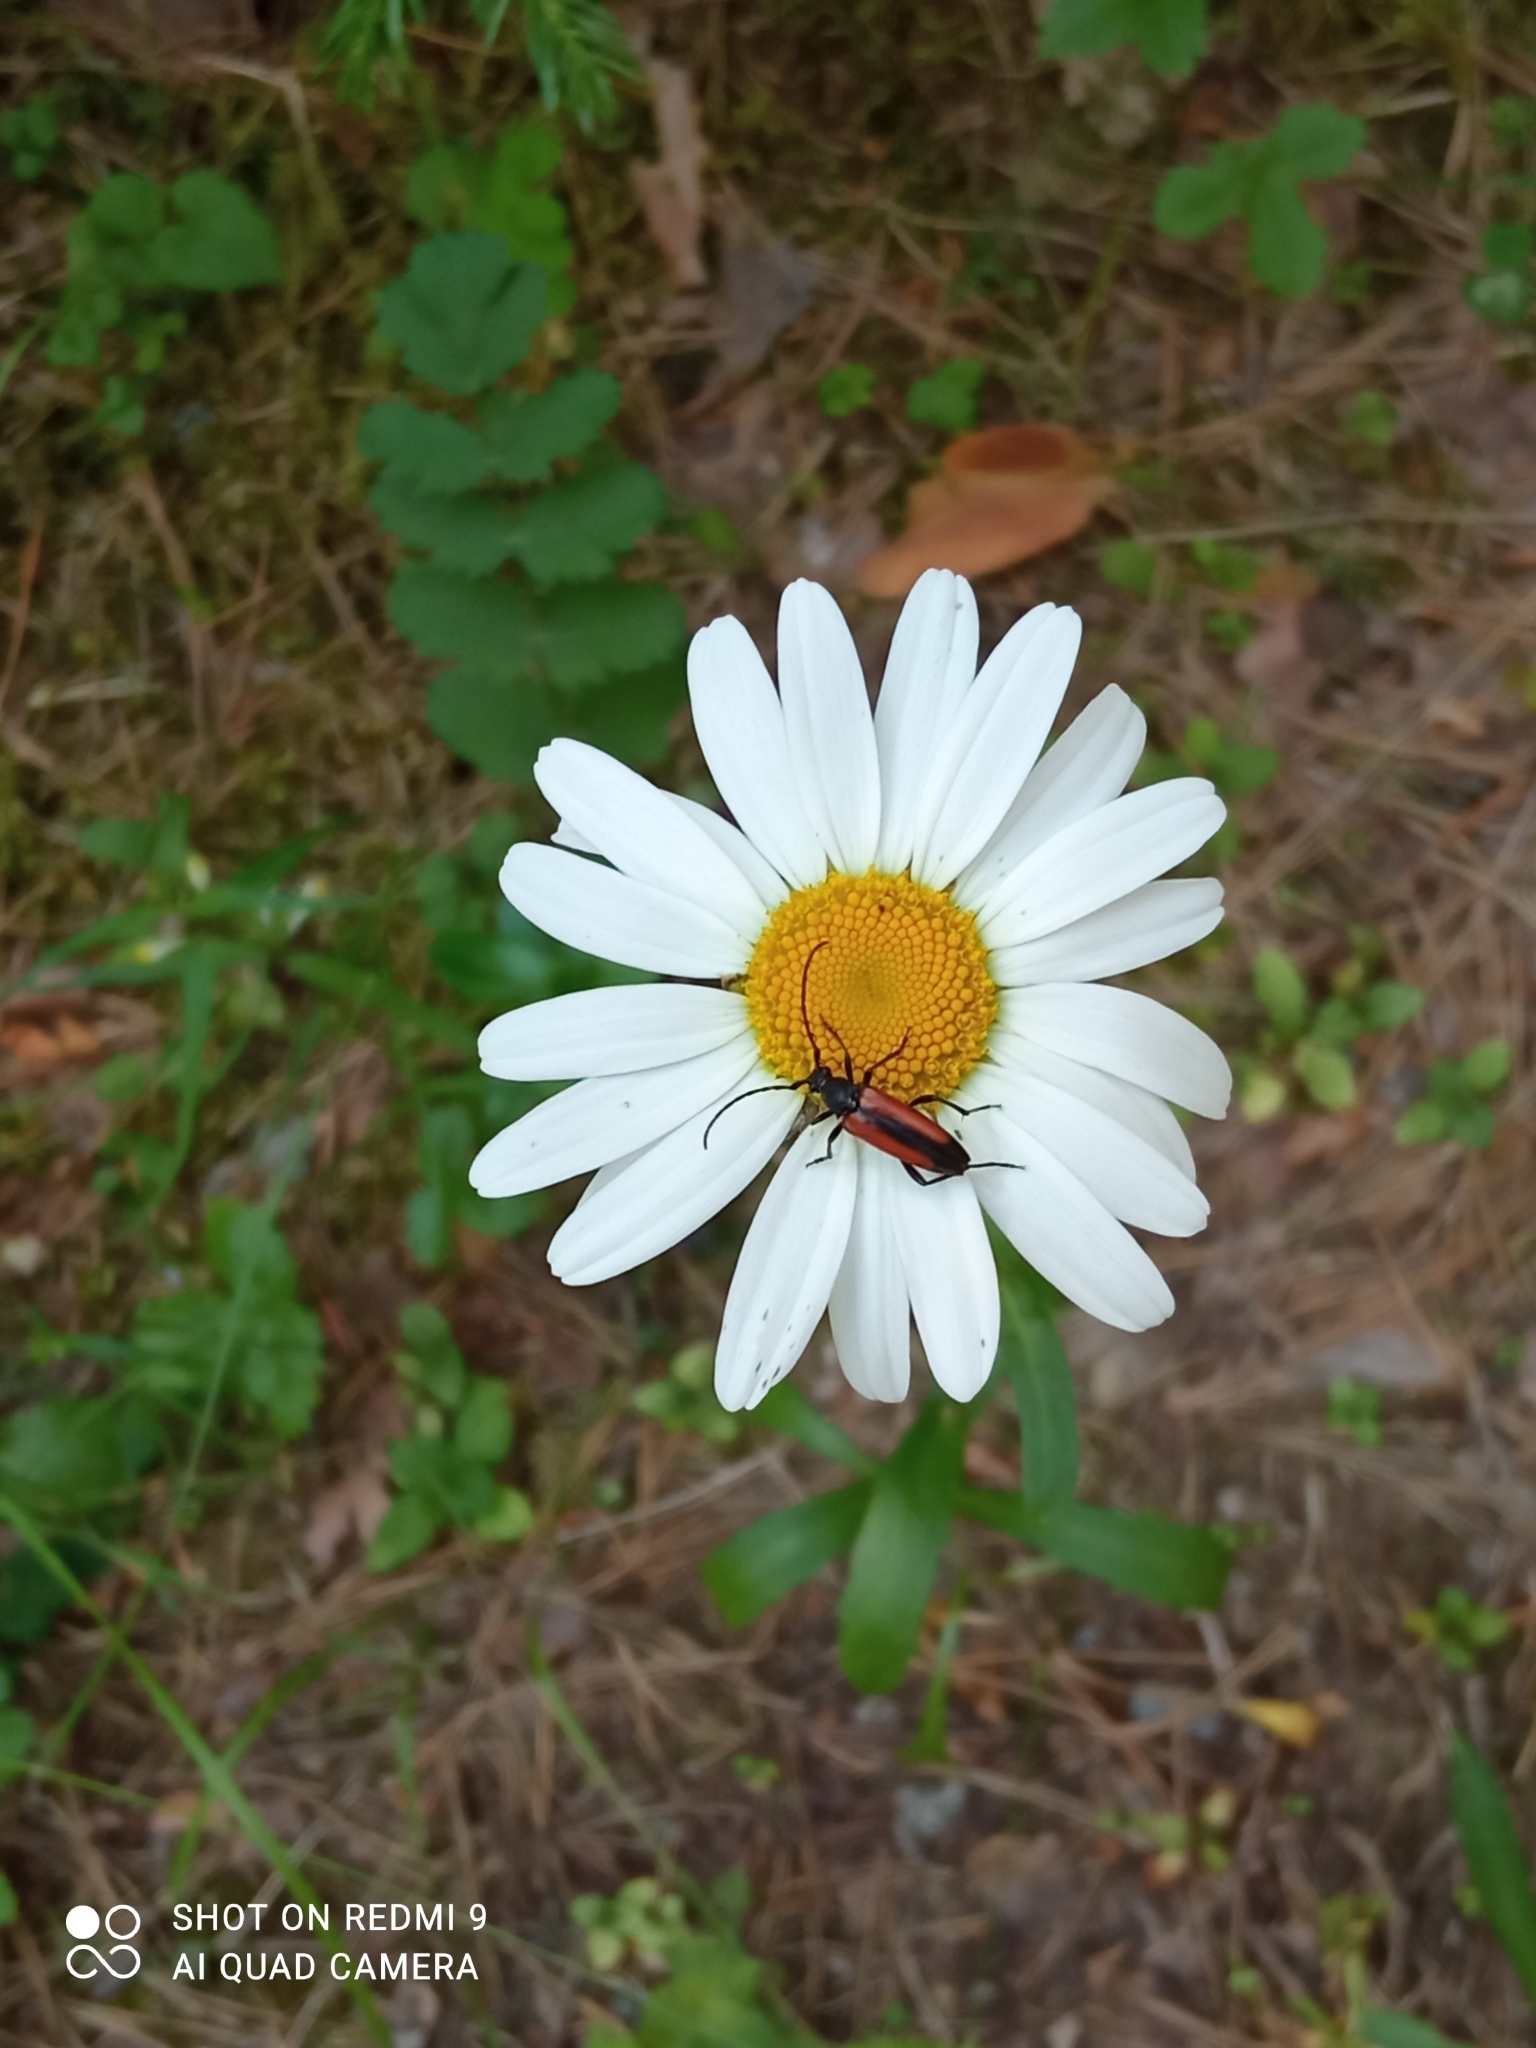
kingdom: Animalia
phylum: Arthropoda
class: Insecta
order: Coleoptera
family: Cerambycidae
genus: Stenurella
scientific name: Stenurella melanura
